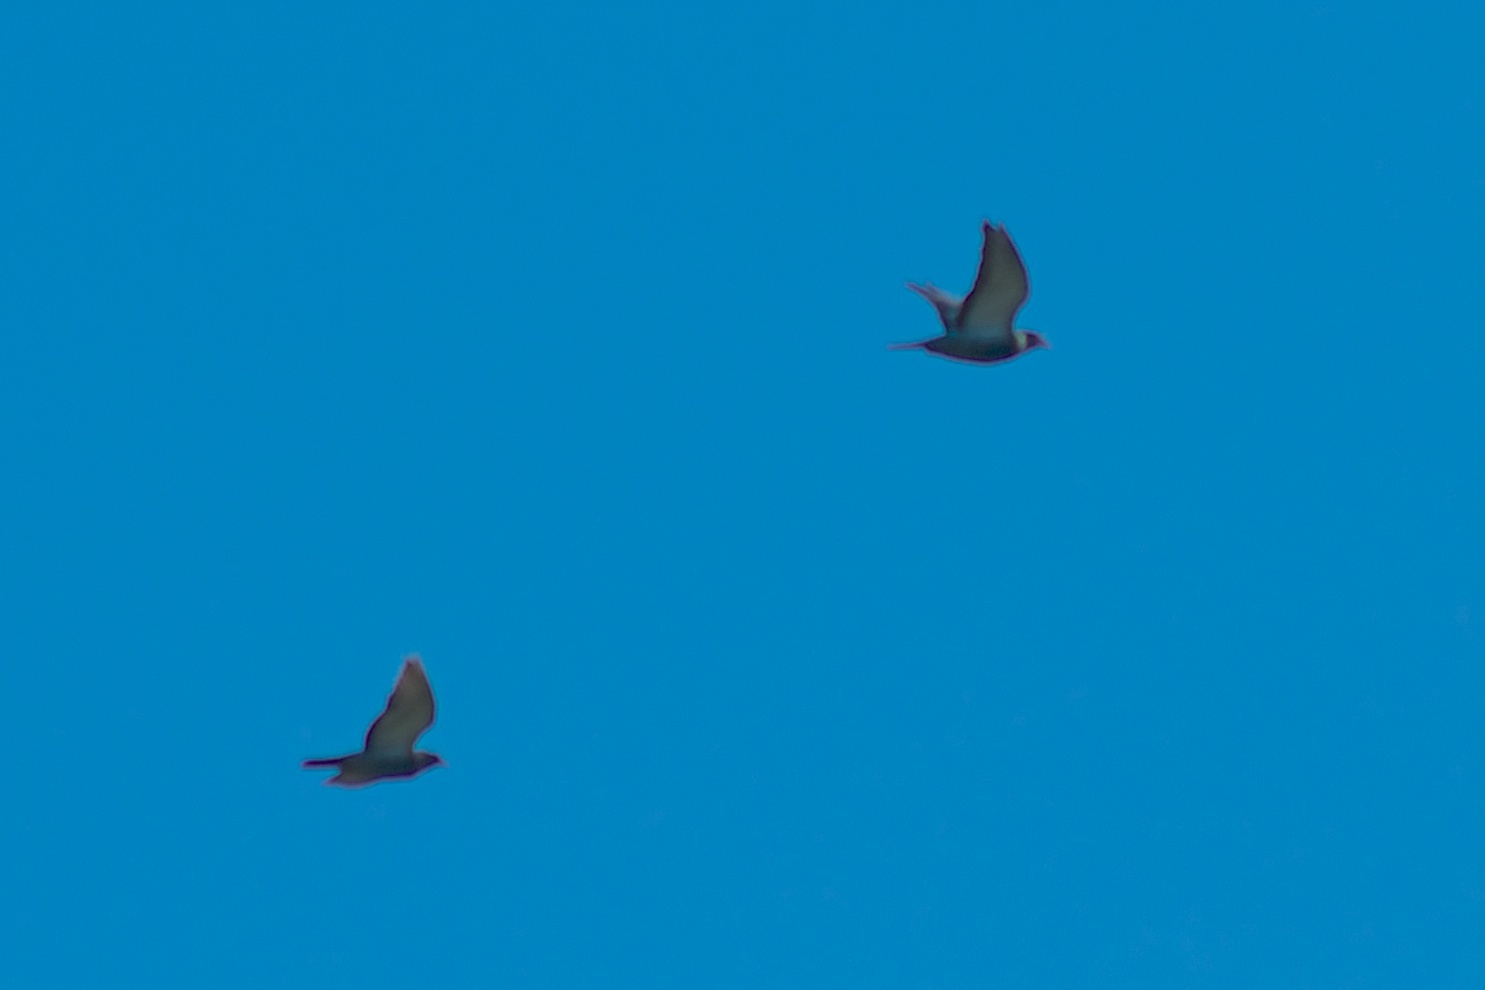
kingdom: Animalia
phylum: Chordata
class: Aves
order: Columbiformes
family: Columbidae
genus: Columba
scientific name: Columba livia
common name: Rock pigeon
